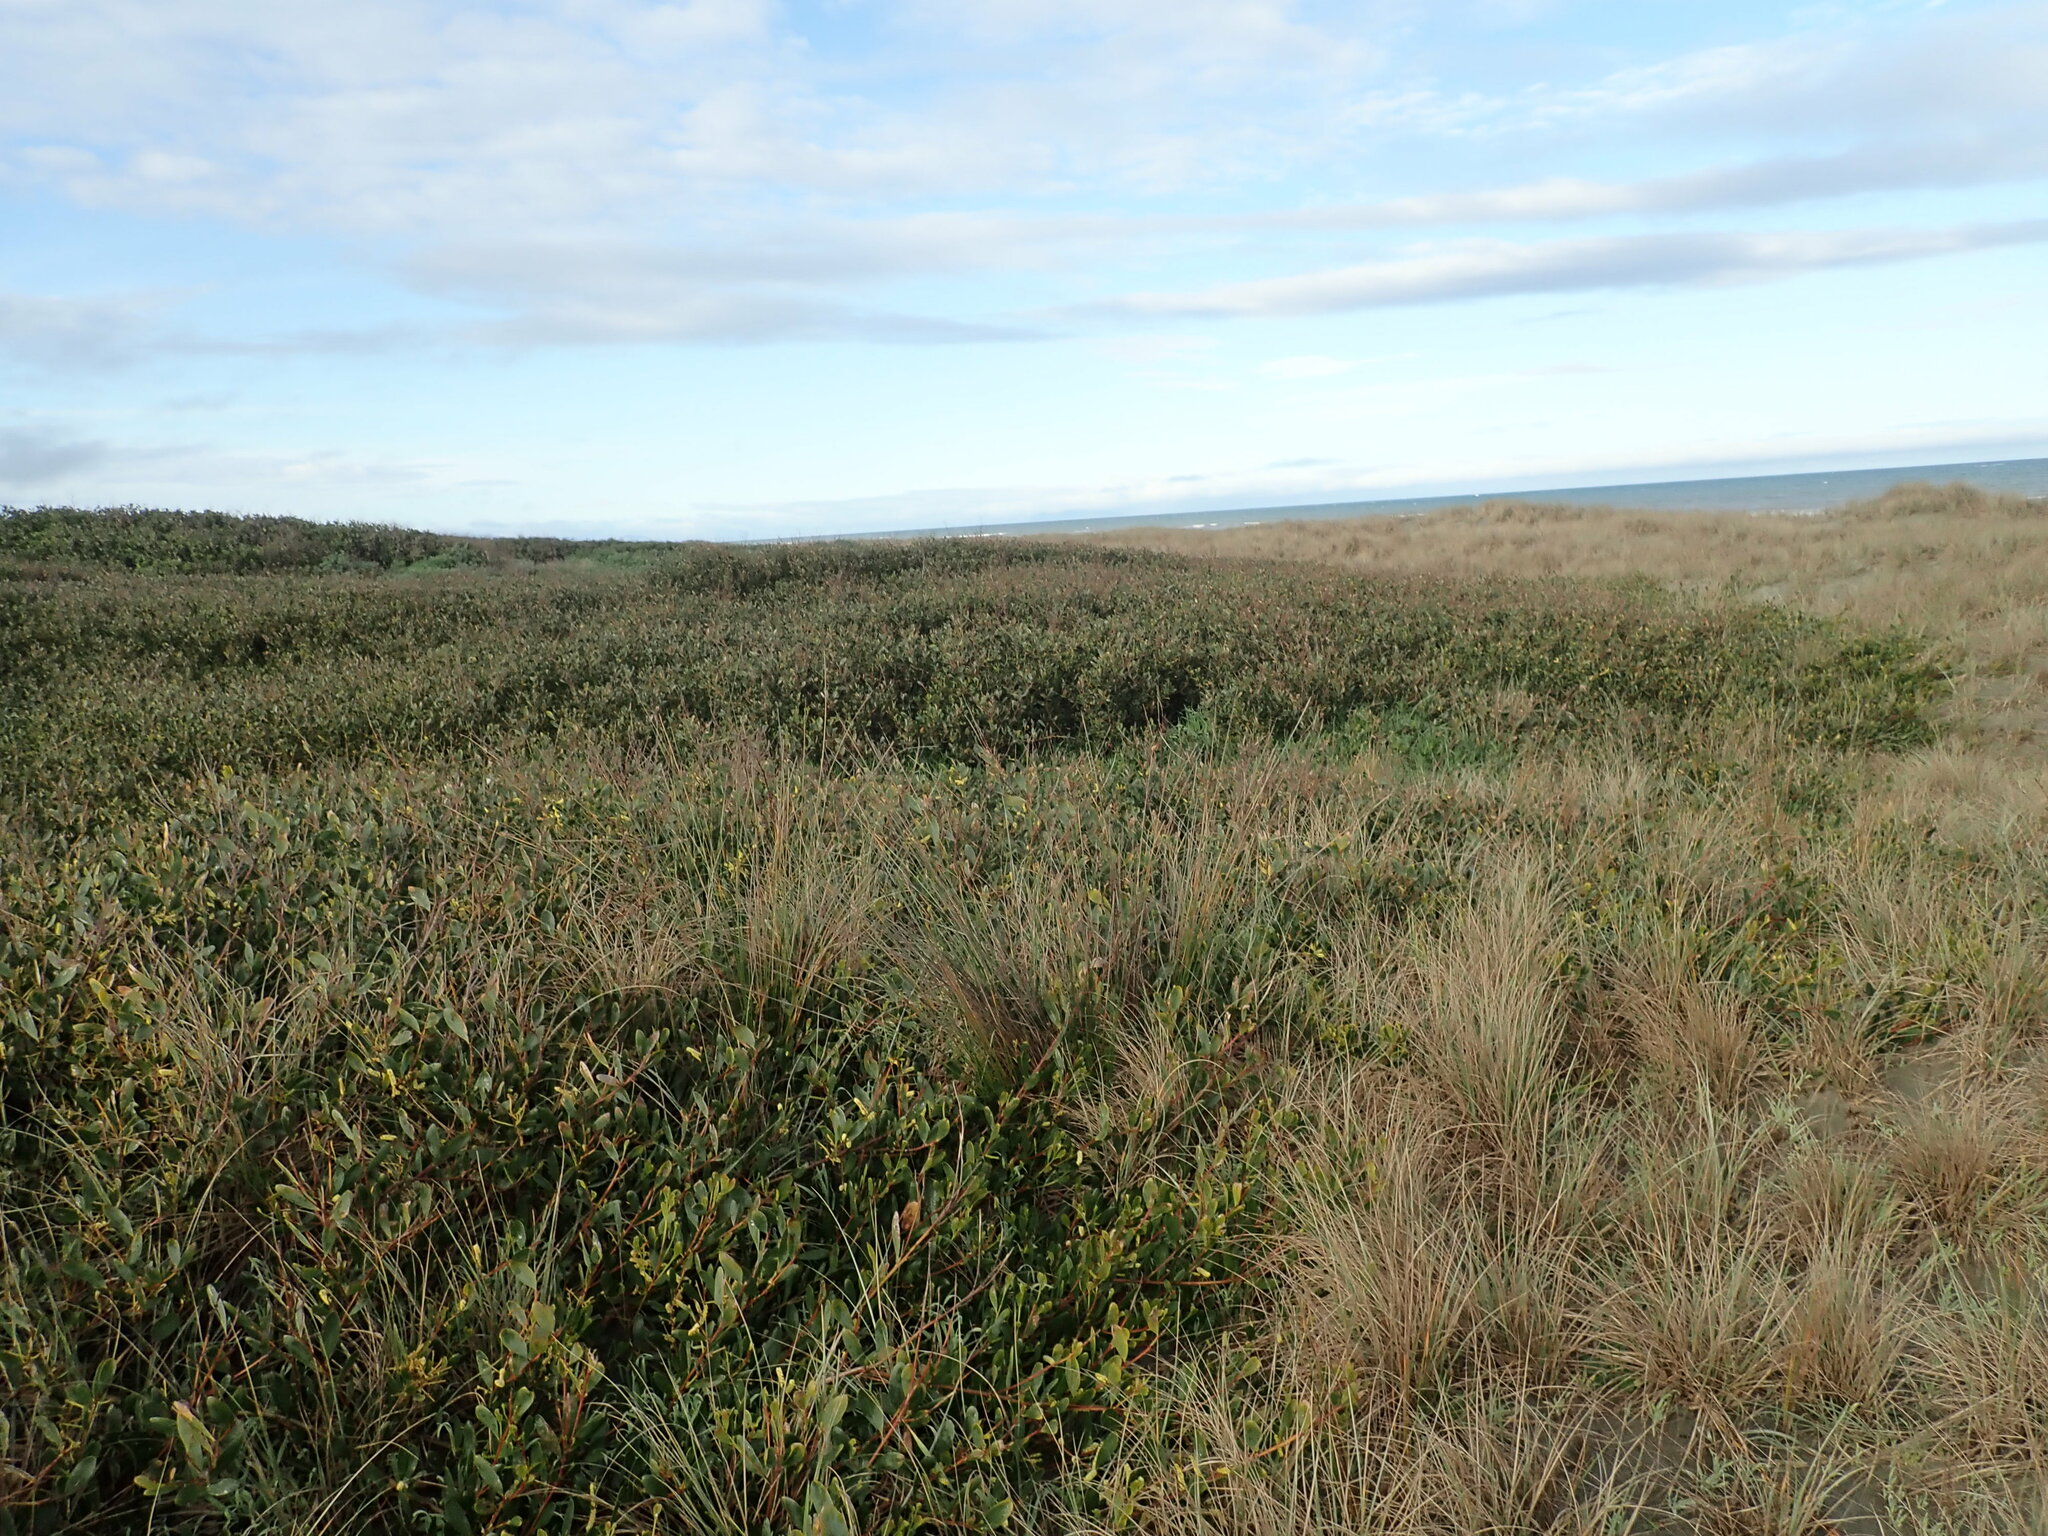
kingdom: Plantae
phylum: Tracheophyta
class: Magnoliopsida
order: Fabales
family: Fabaceae
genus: Acacia
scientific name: Acacia longifolia
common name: Sydney golden wattle
